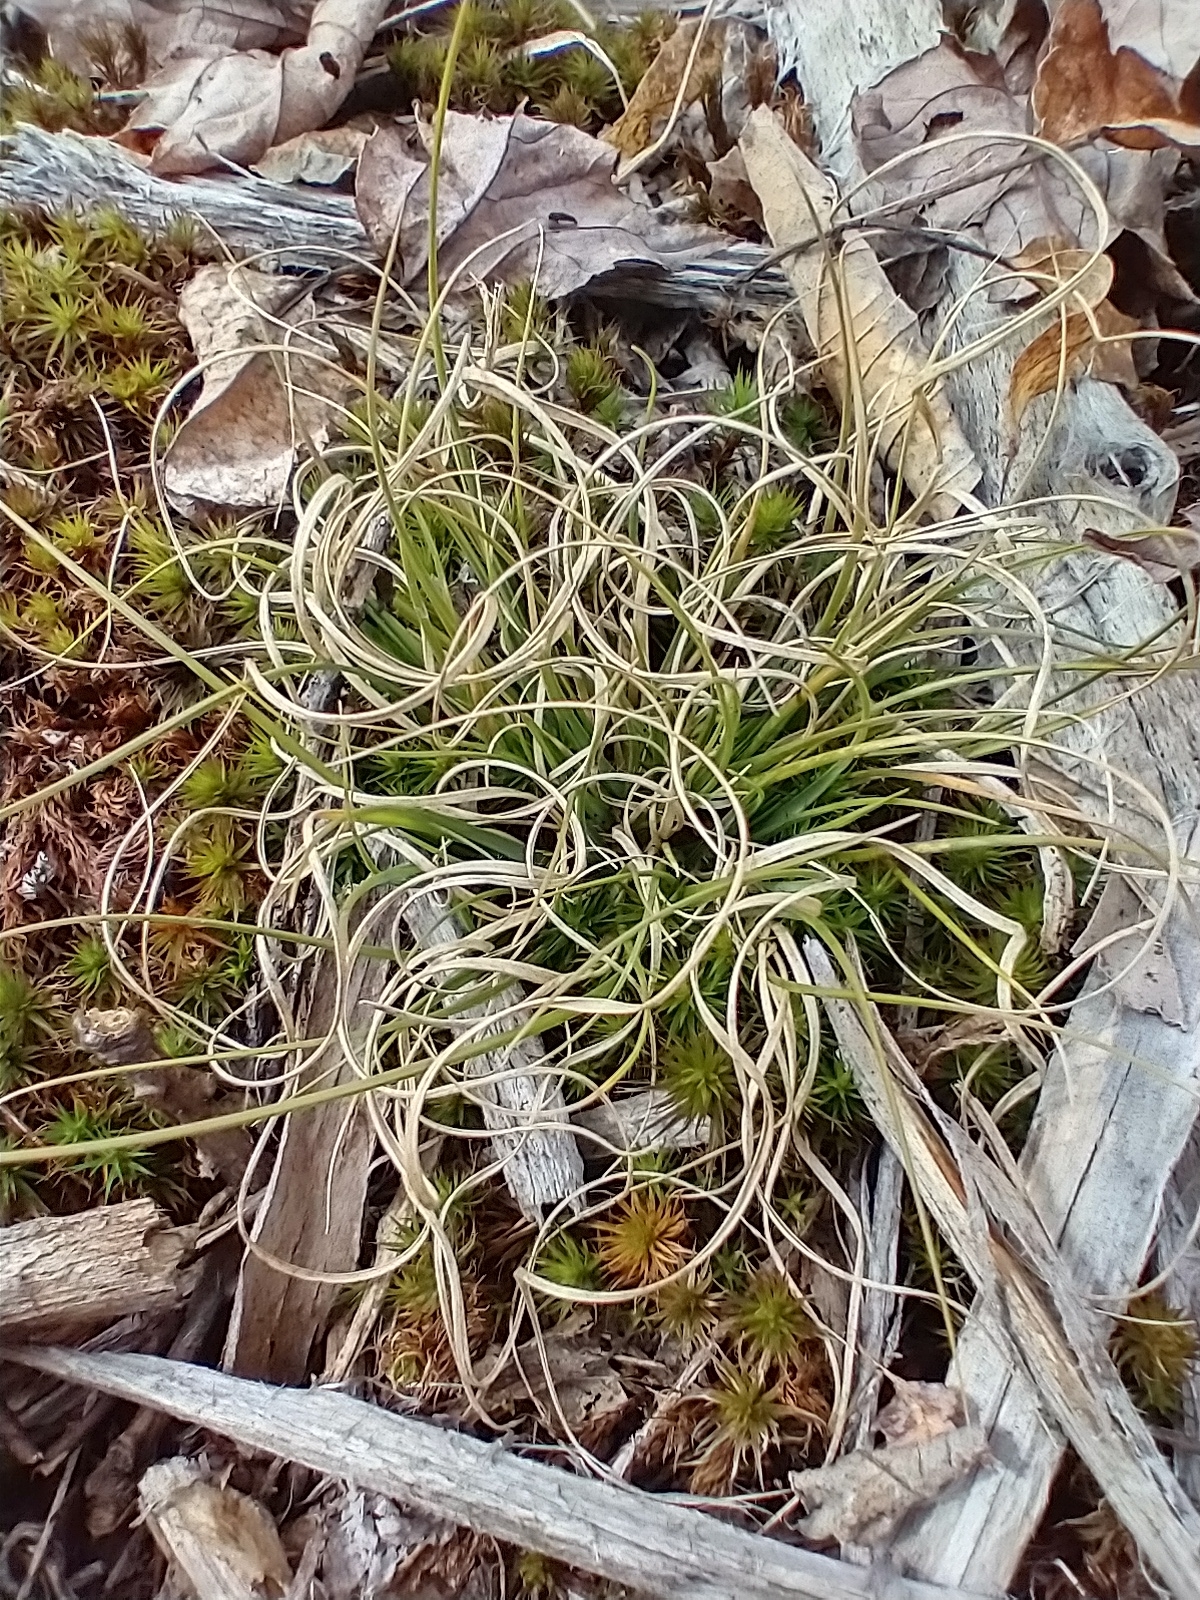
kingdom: Plantae
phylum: Tracheophyta
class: Liliopsida
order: Poales
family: Poaceae
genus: Danthonia
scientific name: Danthonia spicata
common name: Common wild oatgrass
